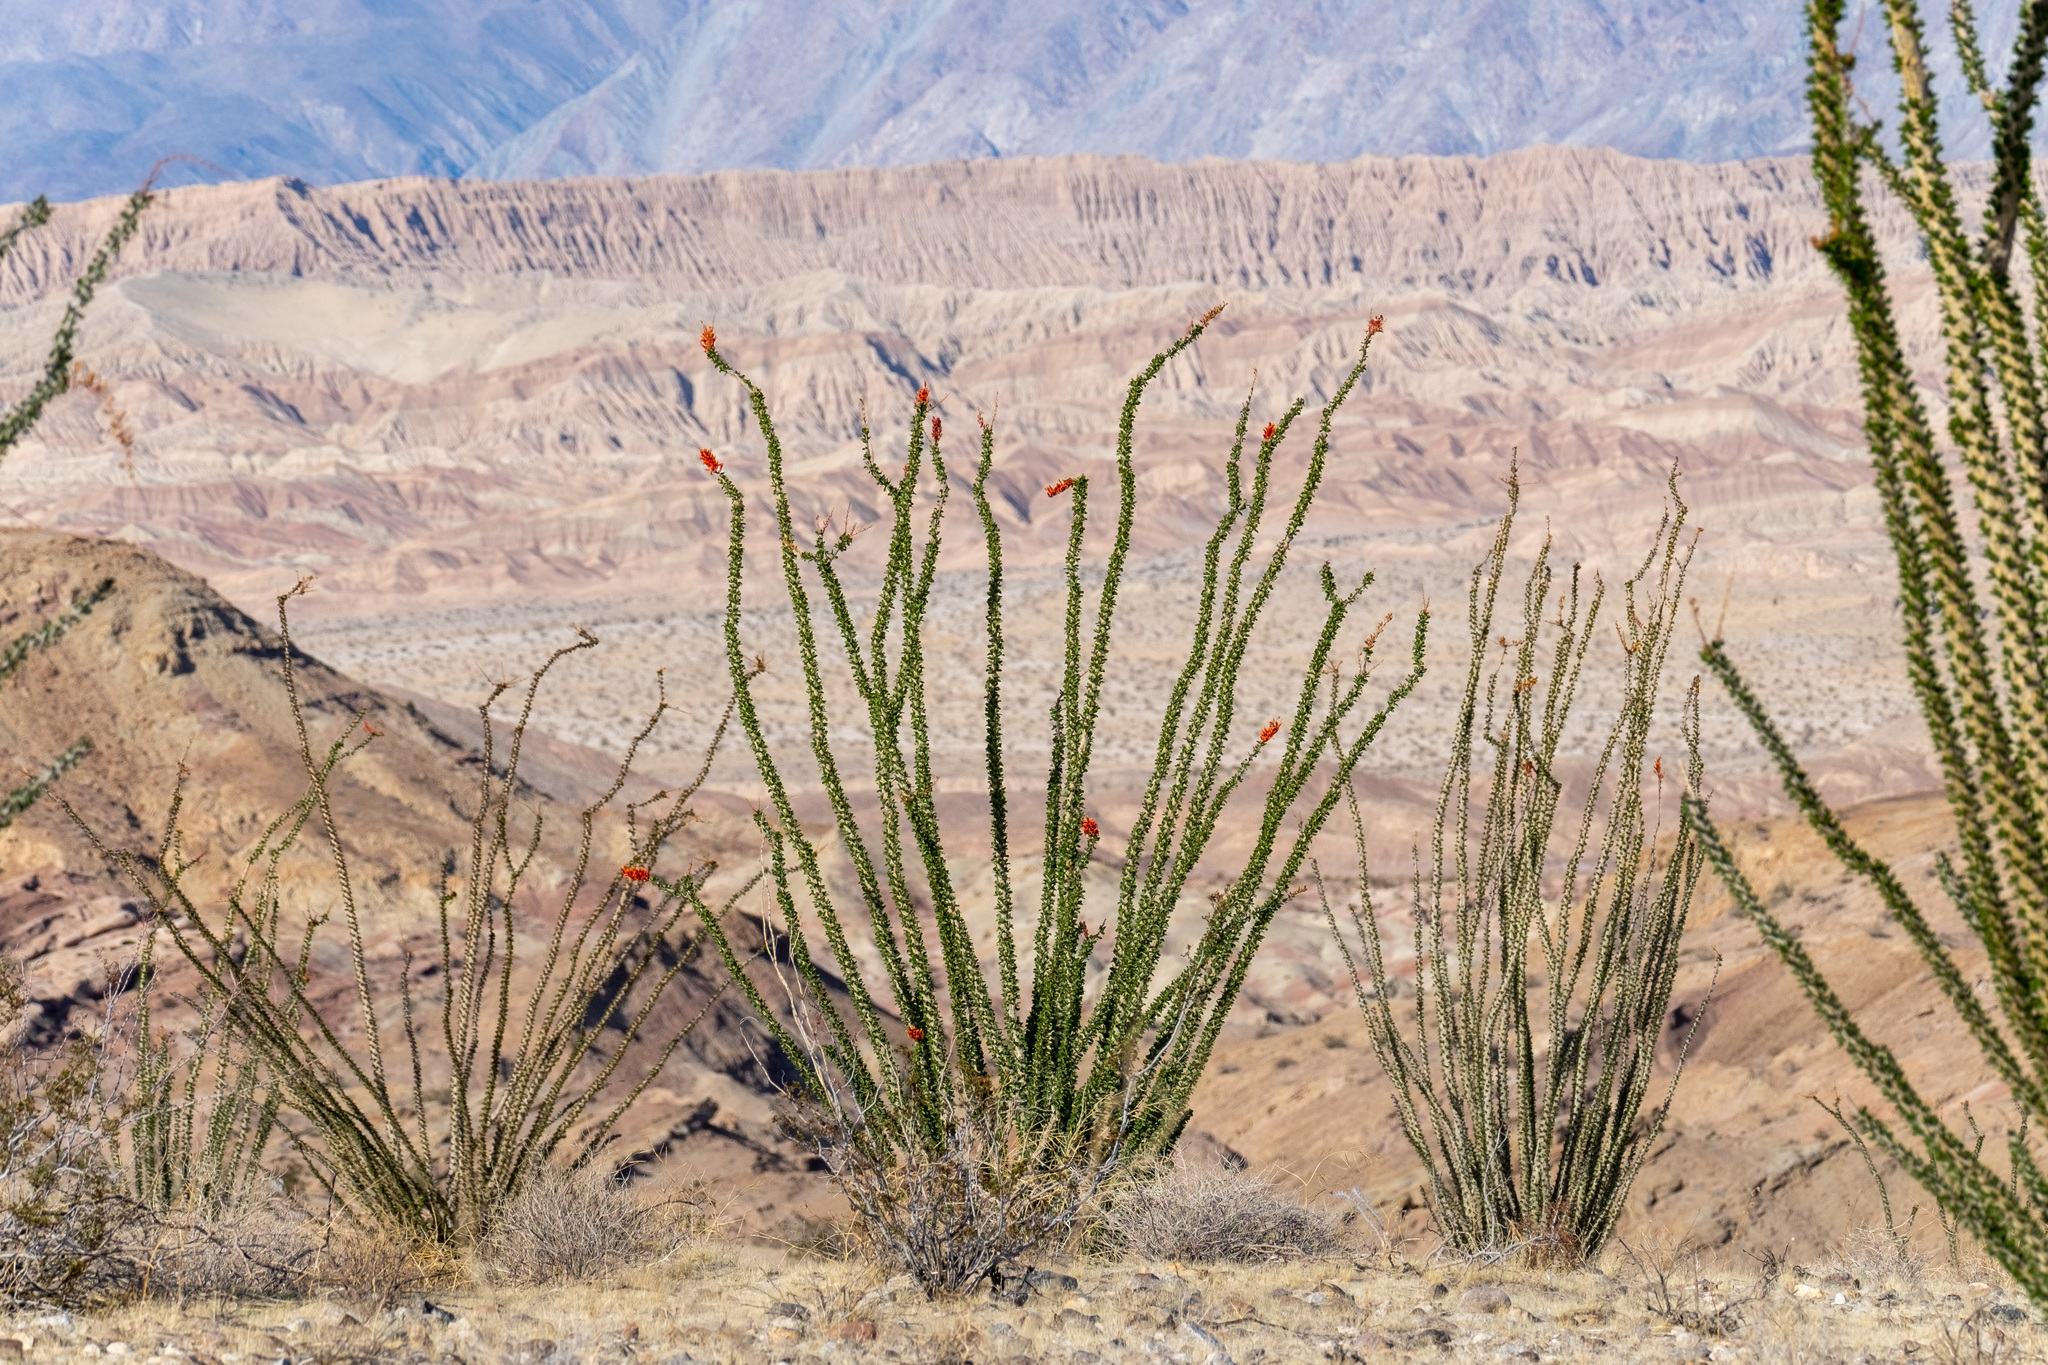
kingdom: Plantae
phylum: Tracheophyta
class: Magnoliopsida
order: Ericales
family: Fouquieriaceae
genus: Fouquieria
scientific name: Fouquieria splendens
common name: Vine-cactus
